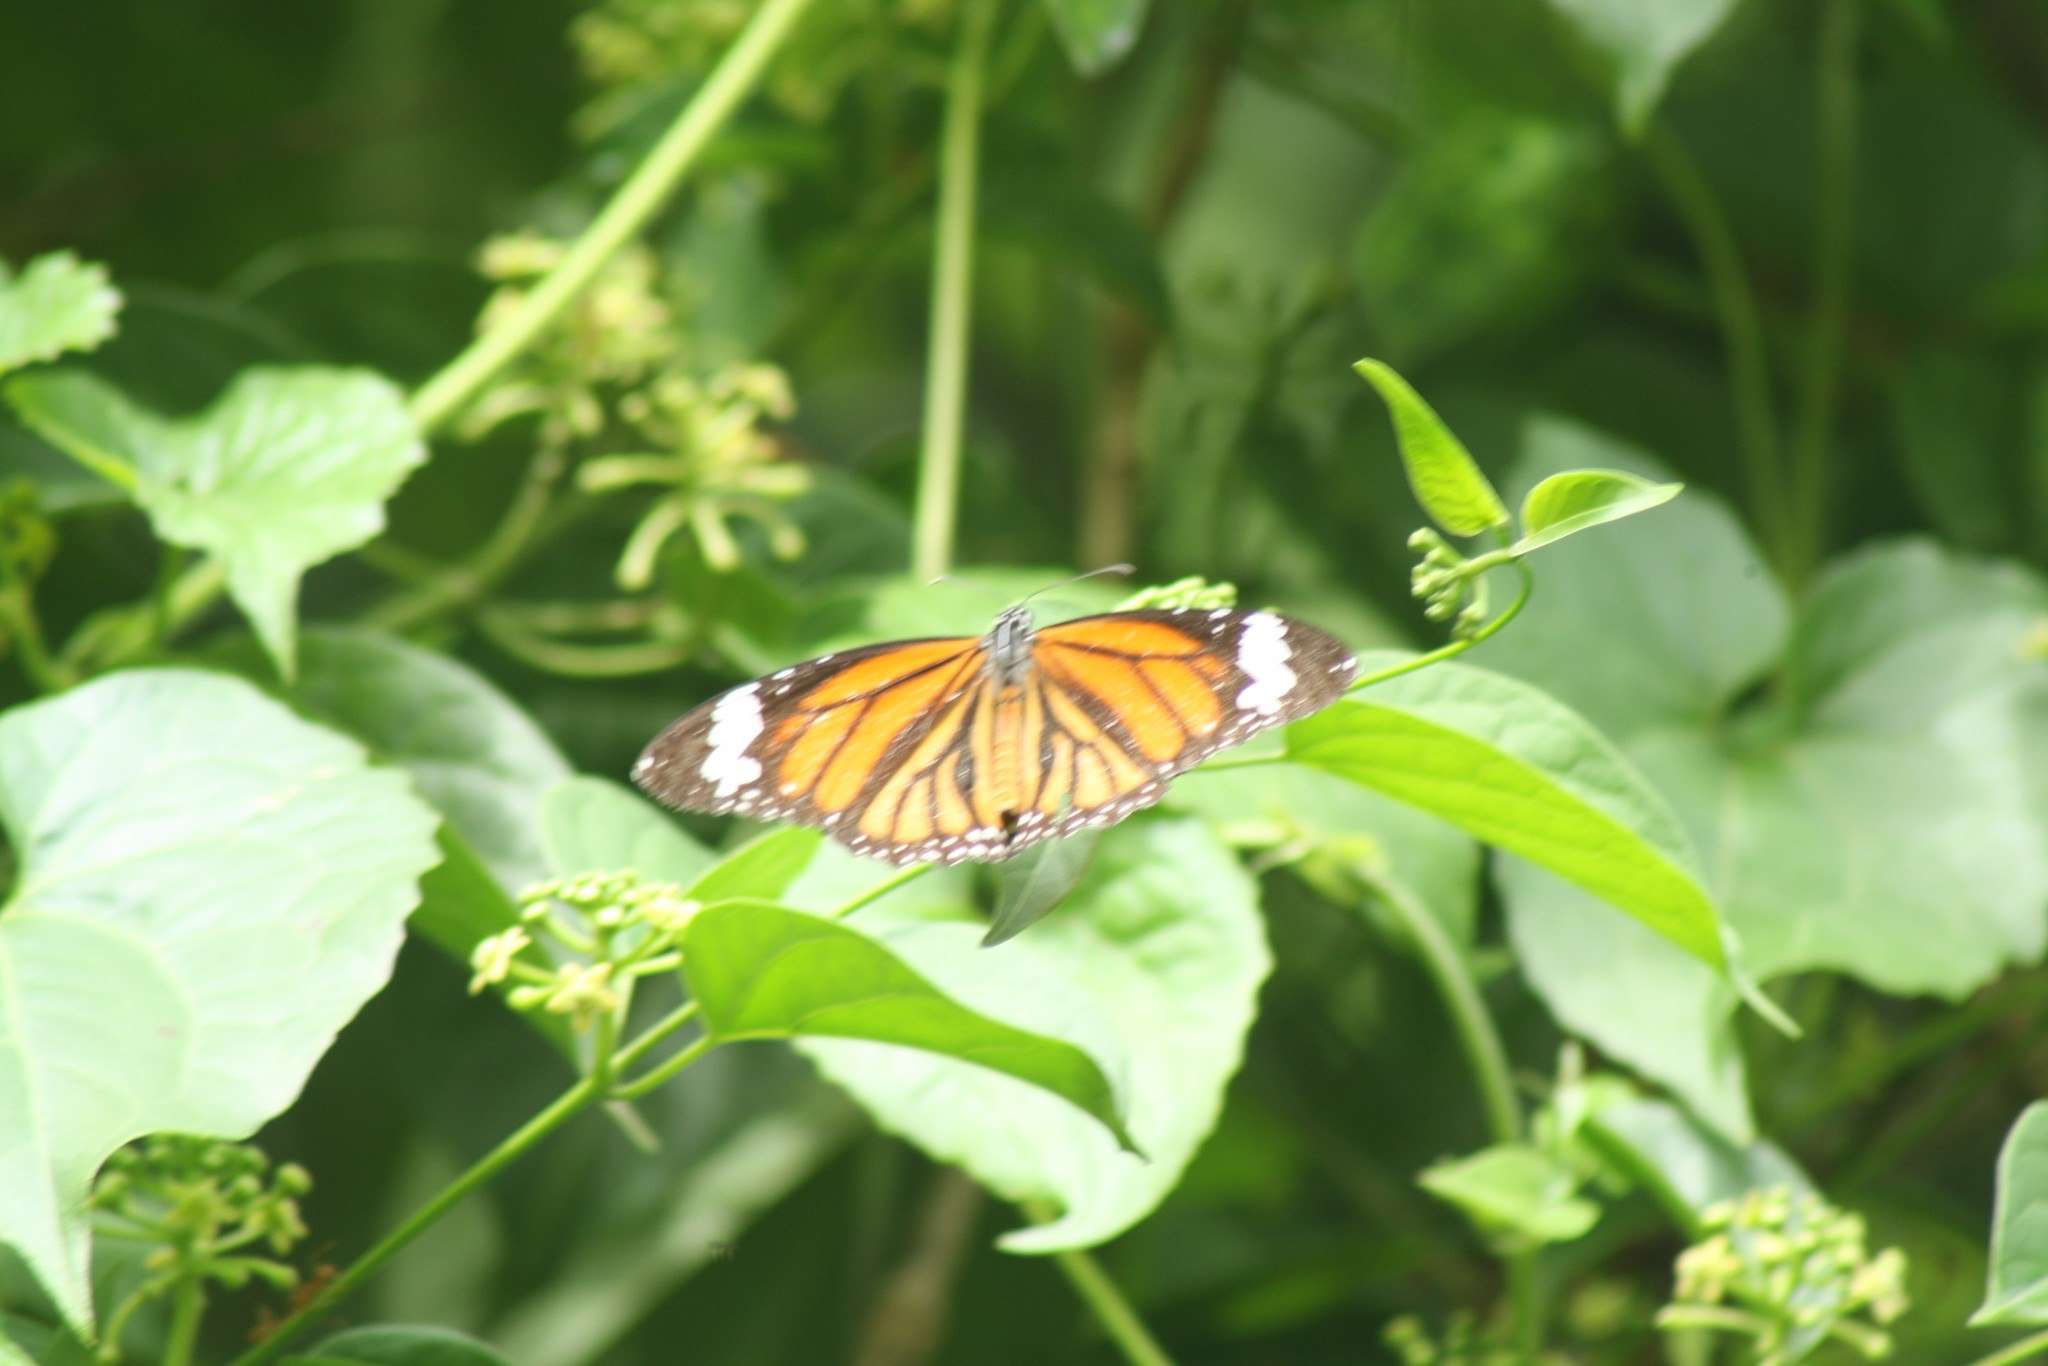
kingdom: Animalia
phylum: Arthropoda
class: Insecta
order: Lepidoptera
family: Nymphalidae
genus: Danaus
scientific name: Danaus genutia
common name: Common tiger butterfly
